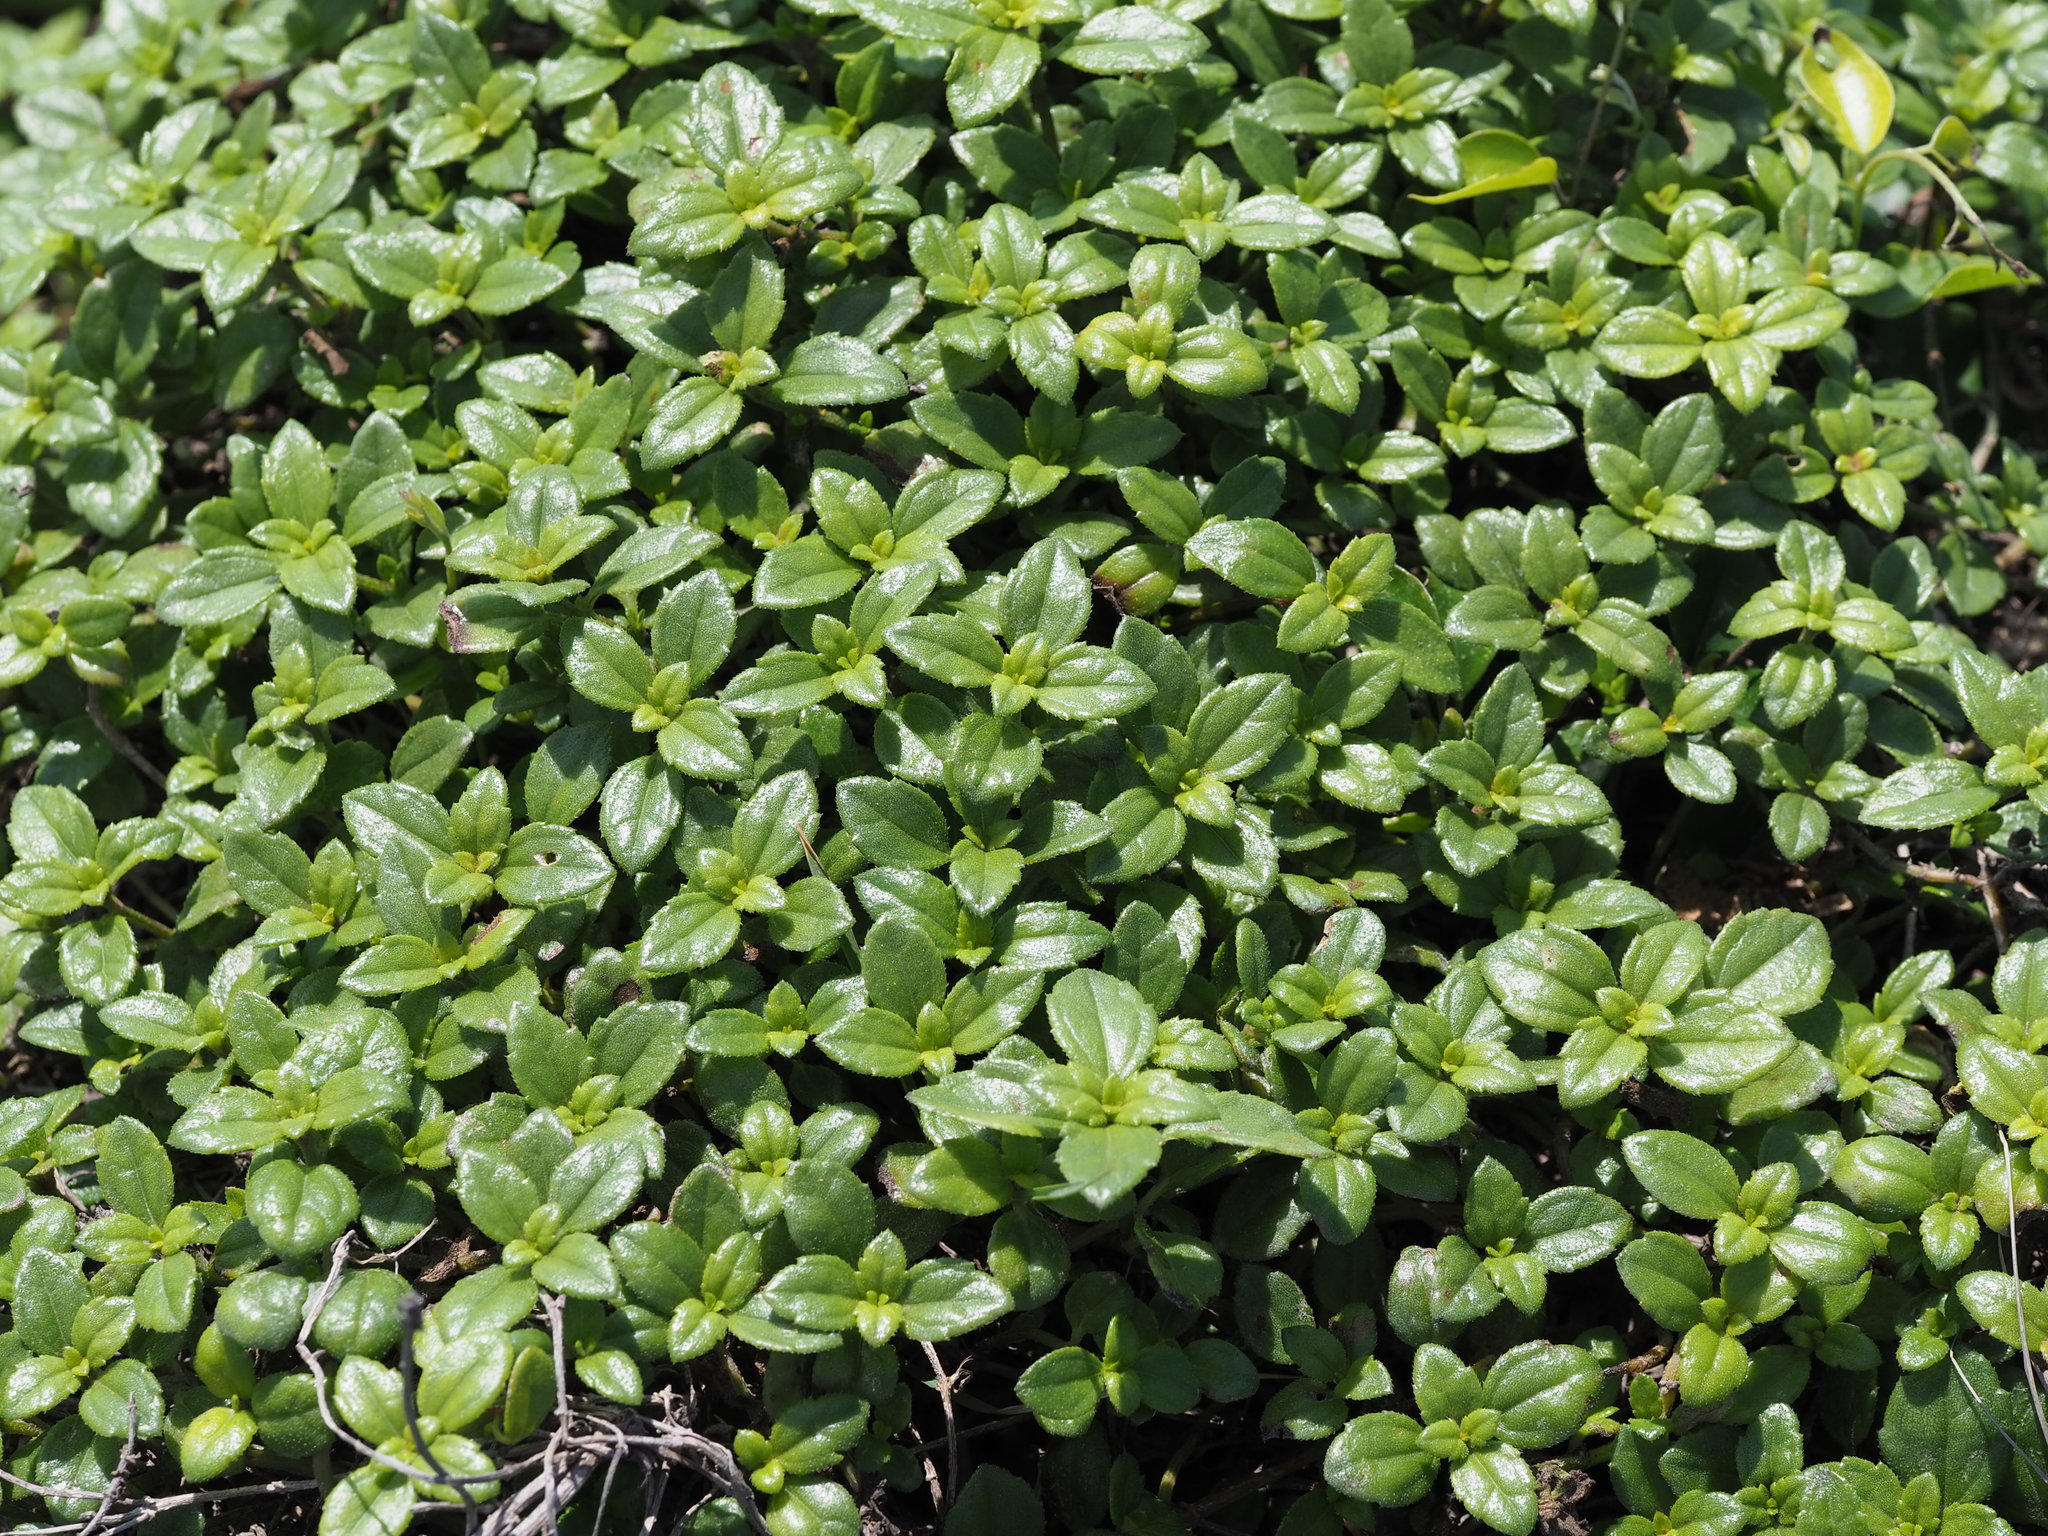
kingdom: Plantae
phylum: Tracheophyta
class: Magnoliopsida
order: Asterales
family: Asteraceae
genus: Melanthera
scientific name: Melanthera prostrata
